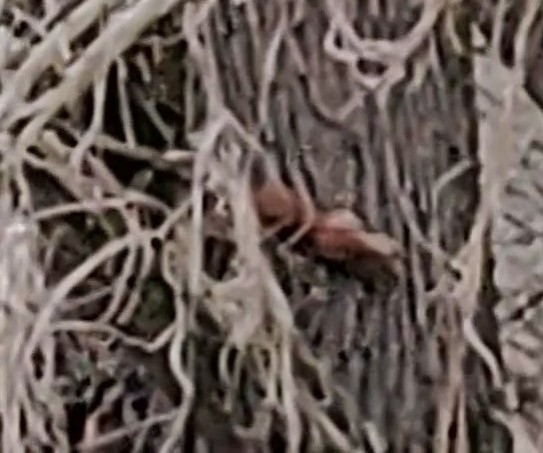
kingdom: Animalia
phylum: Chordata
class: Mammalia
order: Rodentia
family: Sciuridae
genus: Sciurus
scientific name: Sciurus vulgaris
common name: Eurasian red squirrel
